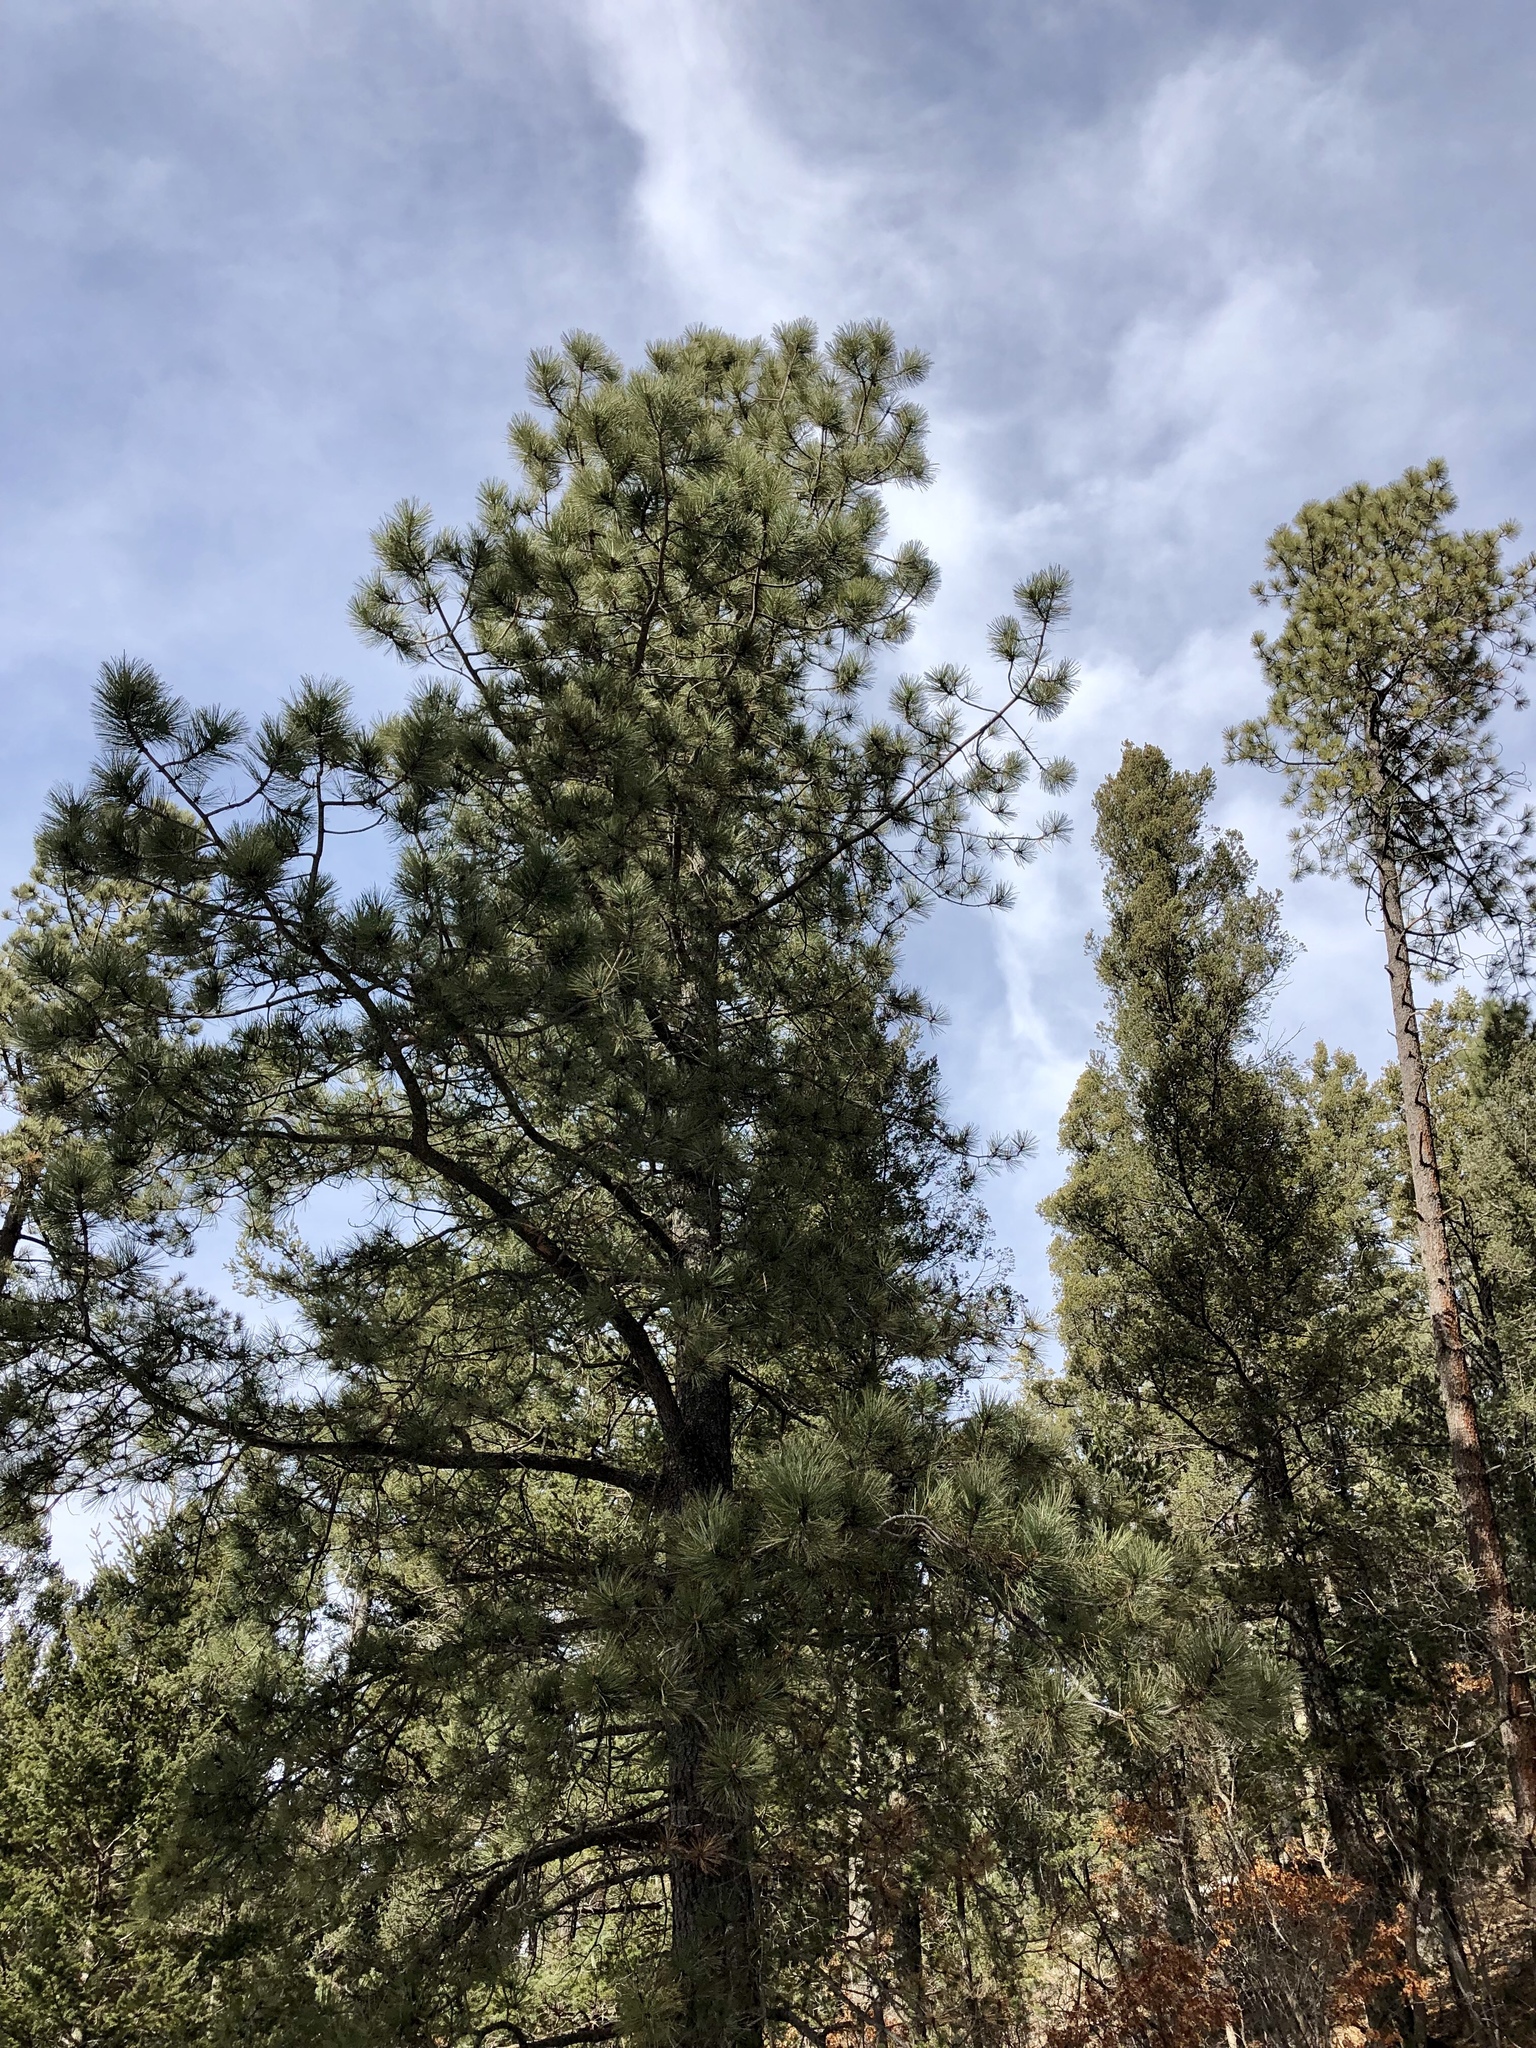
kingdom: Plantae
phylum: Tracheophyta
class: Pinopsida
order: Pinales
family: Pinaceae
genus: Pinus
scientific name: Pinus ponderosa
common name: Western yellow-pine
